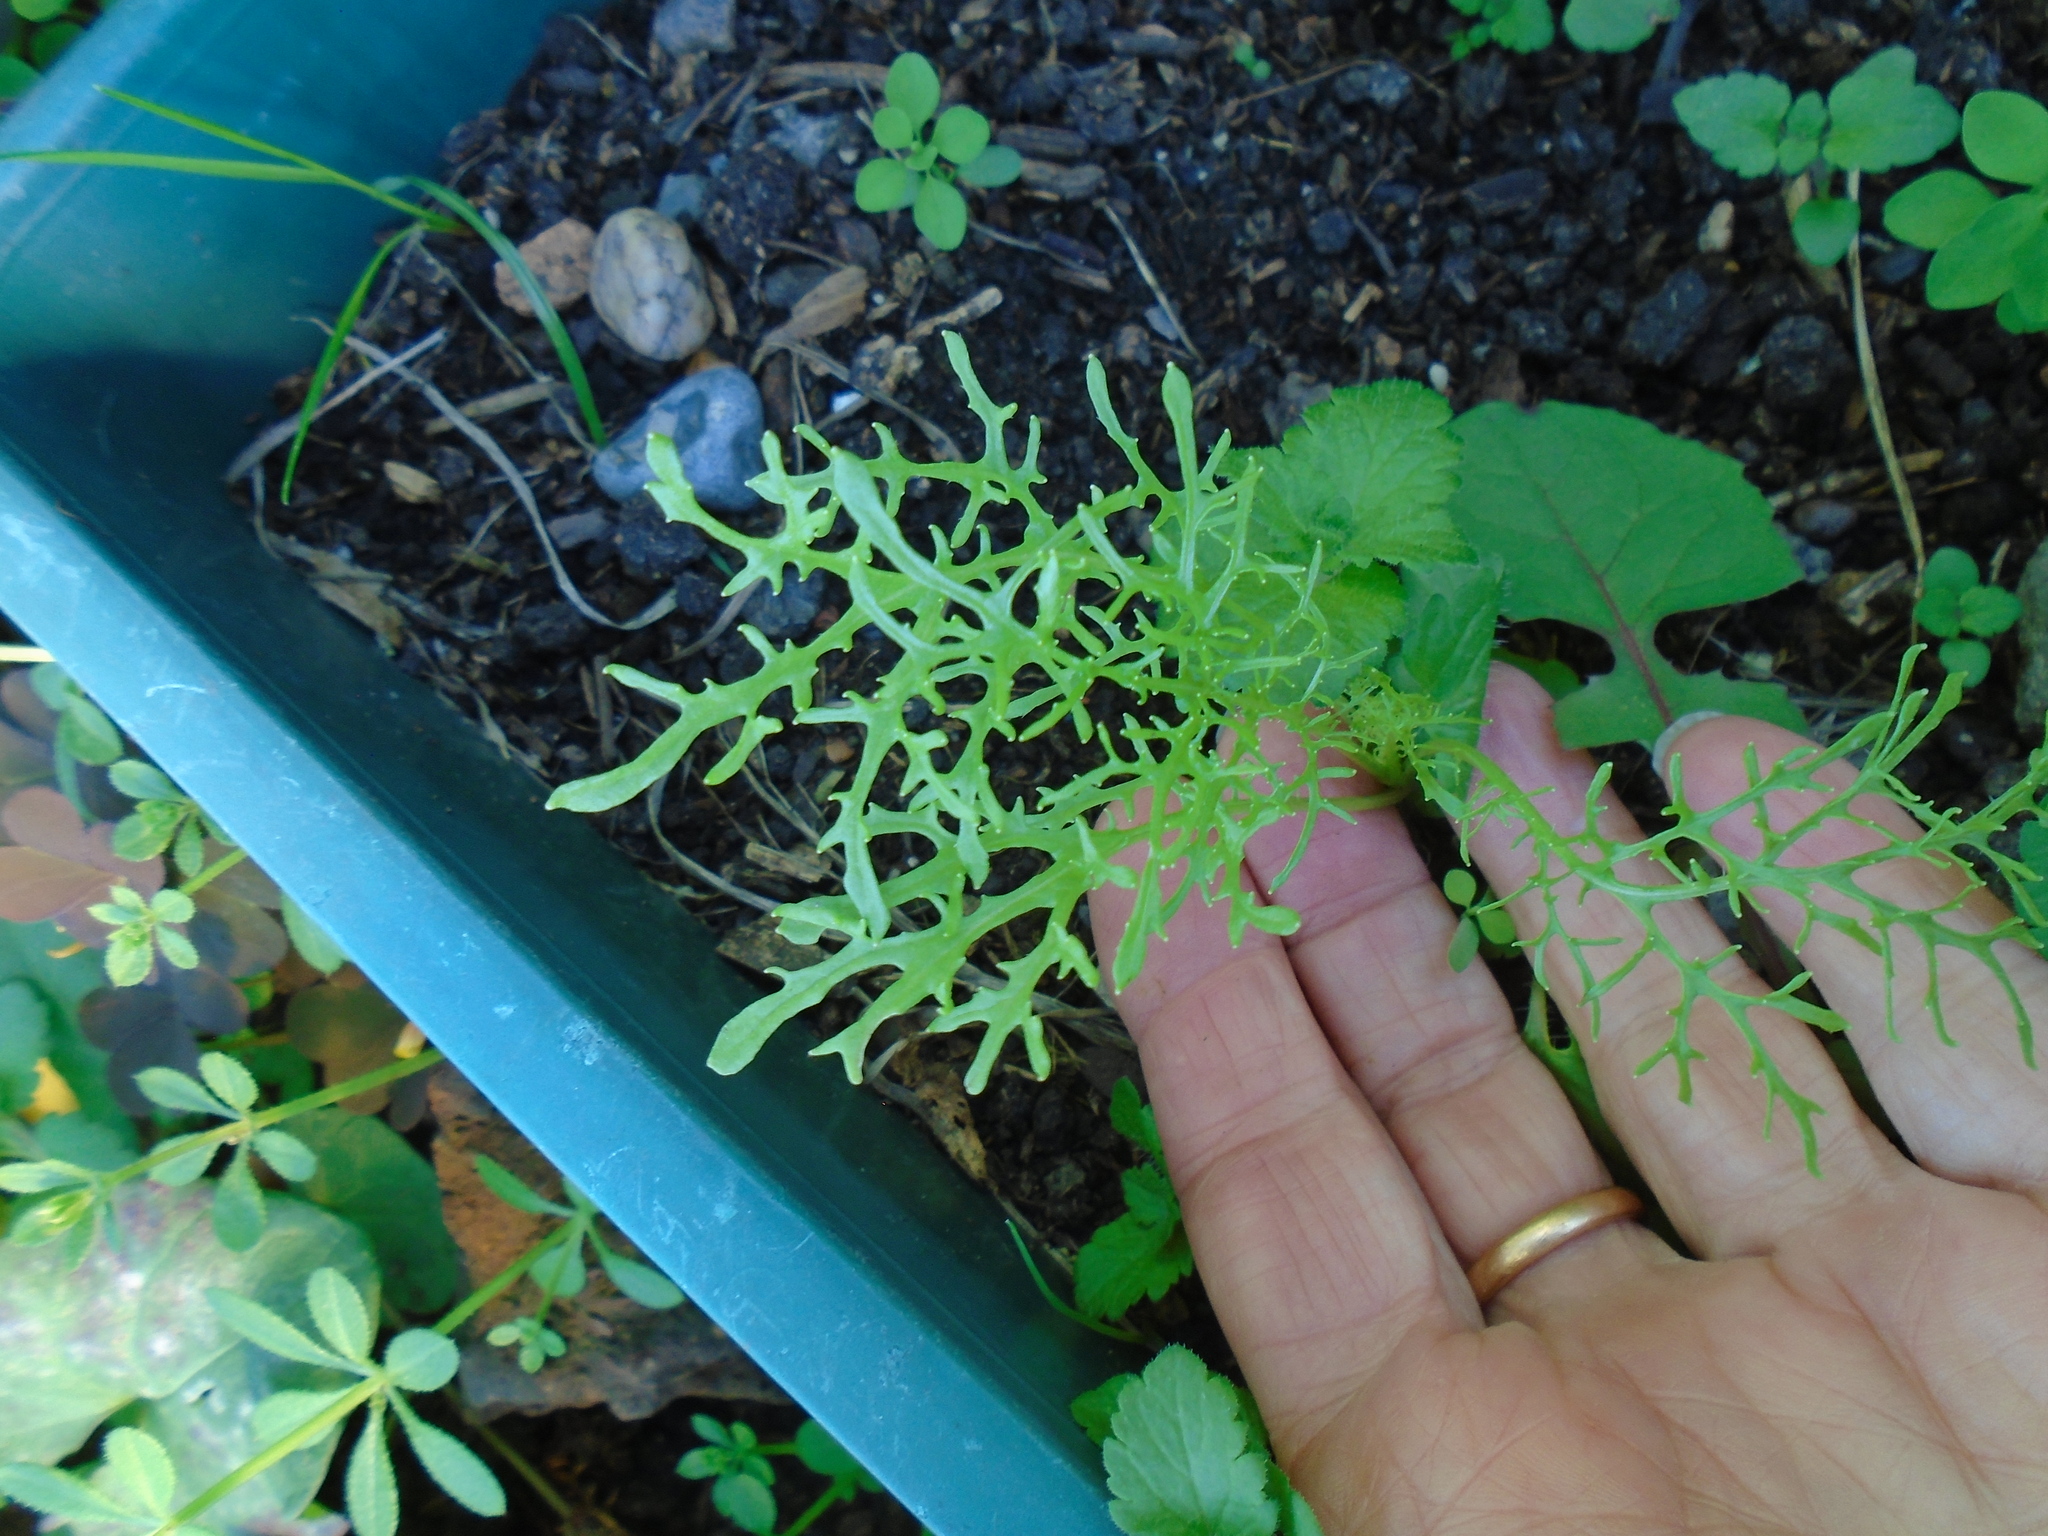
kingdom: Plantae
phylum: Tracheophyta
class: Magnoliopsida
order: Brassicales
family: Brassicaceae
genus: Brassica
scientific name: Brassica rapa
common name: Field mustard
